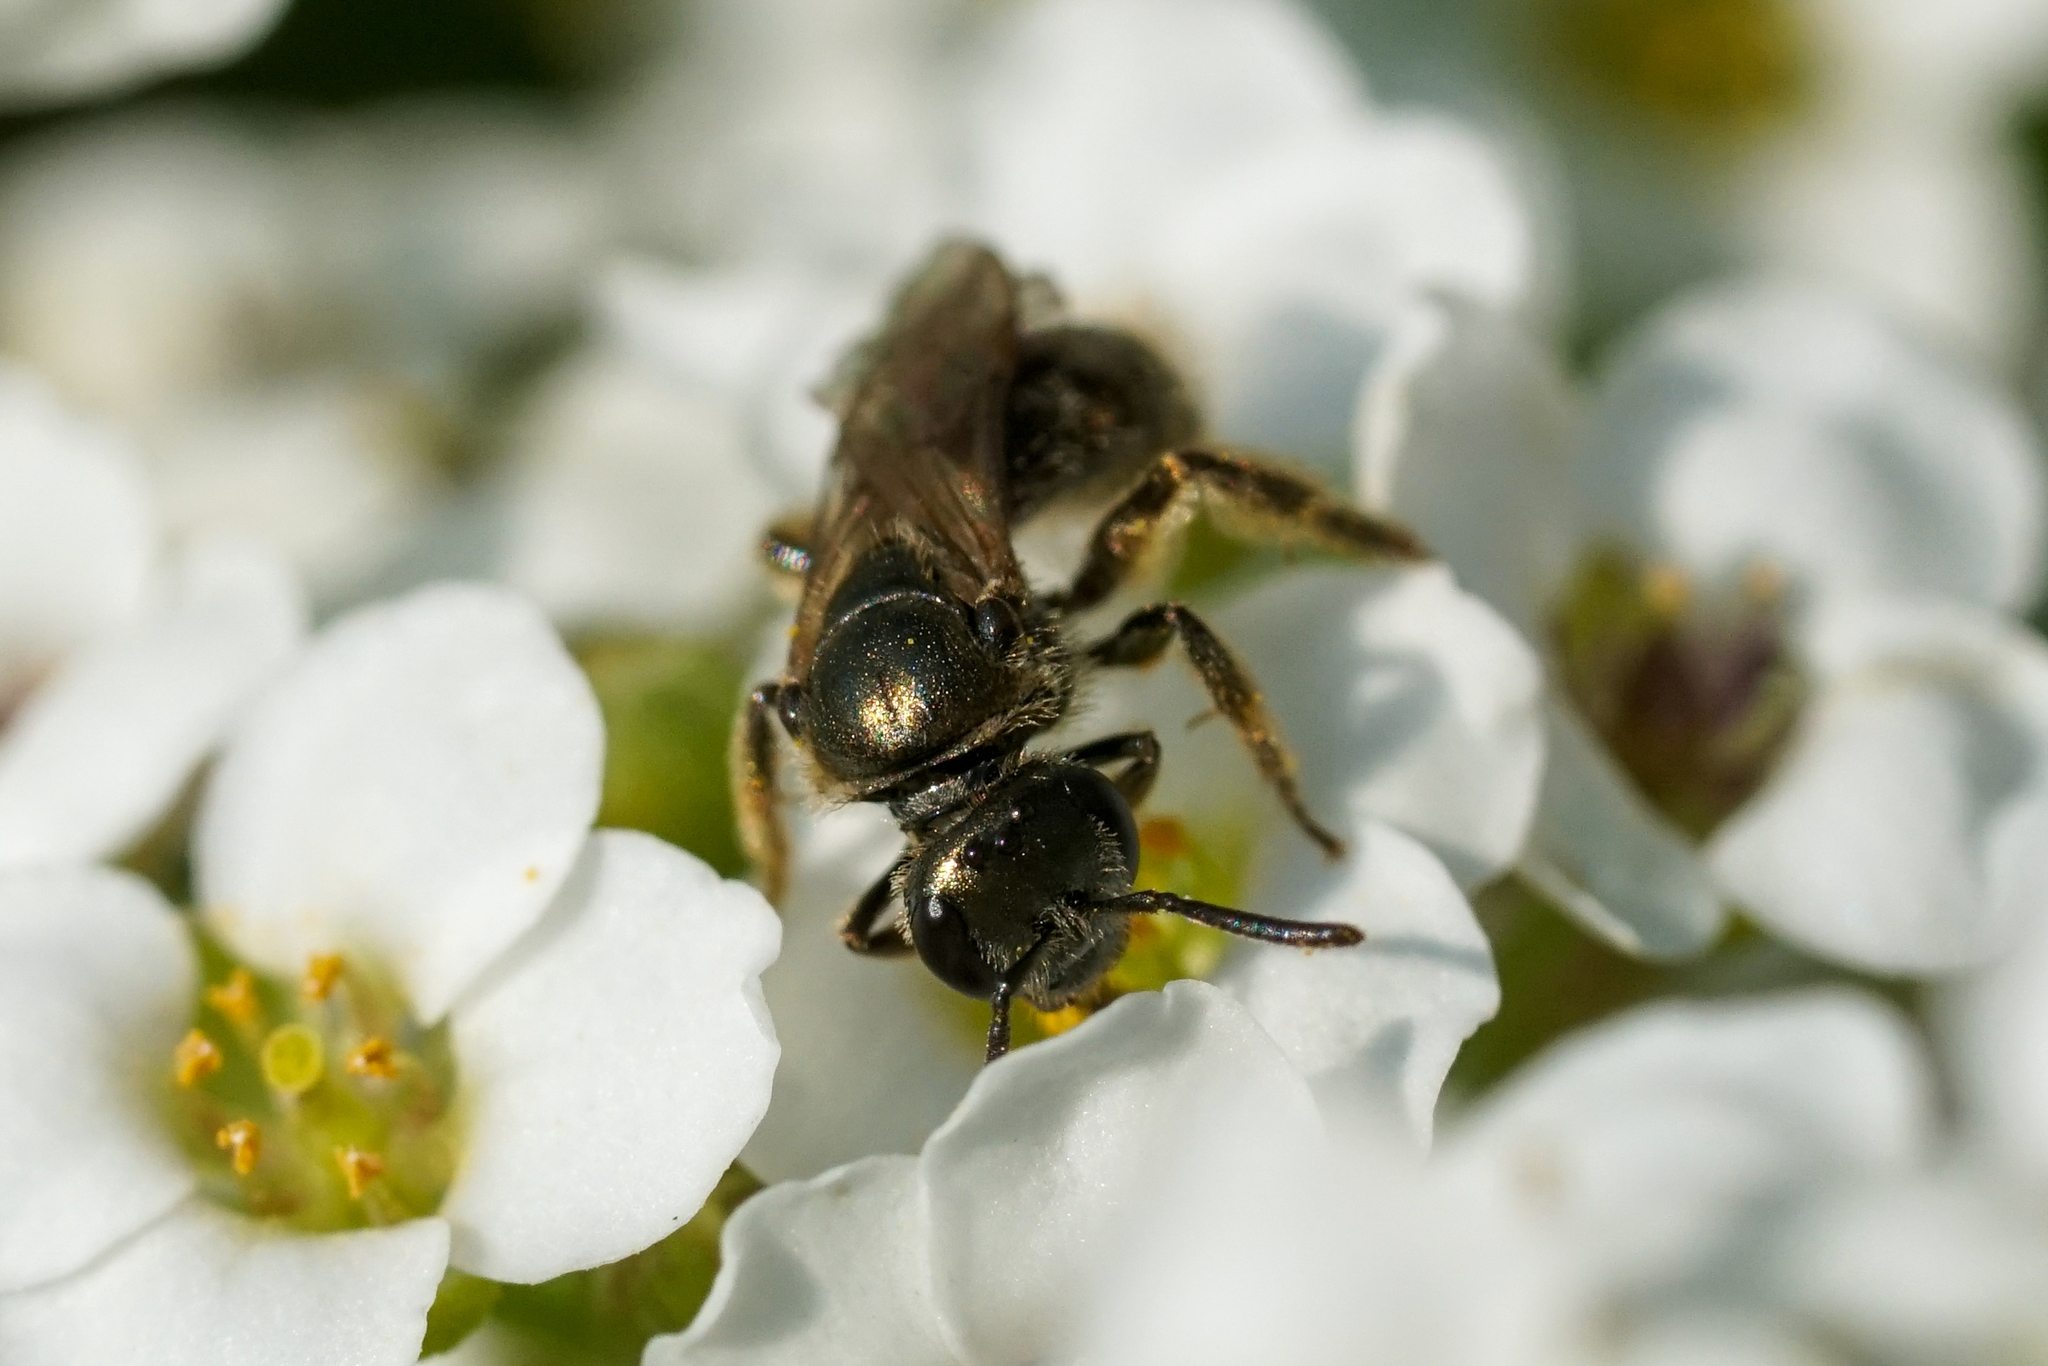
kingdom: Animalia
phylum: Arthropoda
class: Insecta
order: Hymenoptera
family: Halictidae
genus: Dialictus
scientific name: Dialictus
